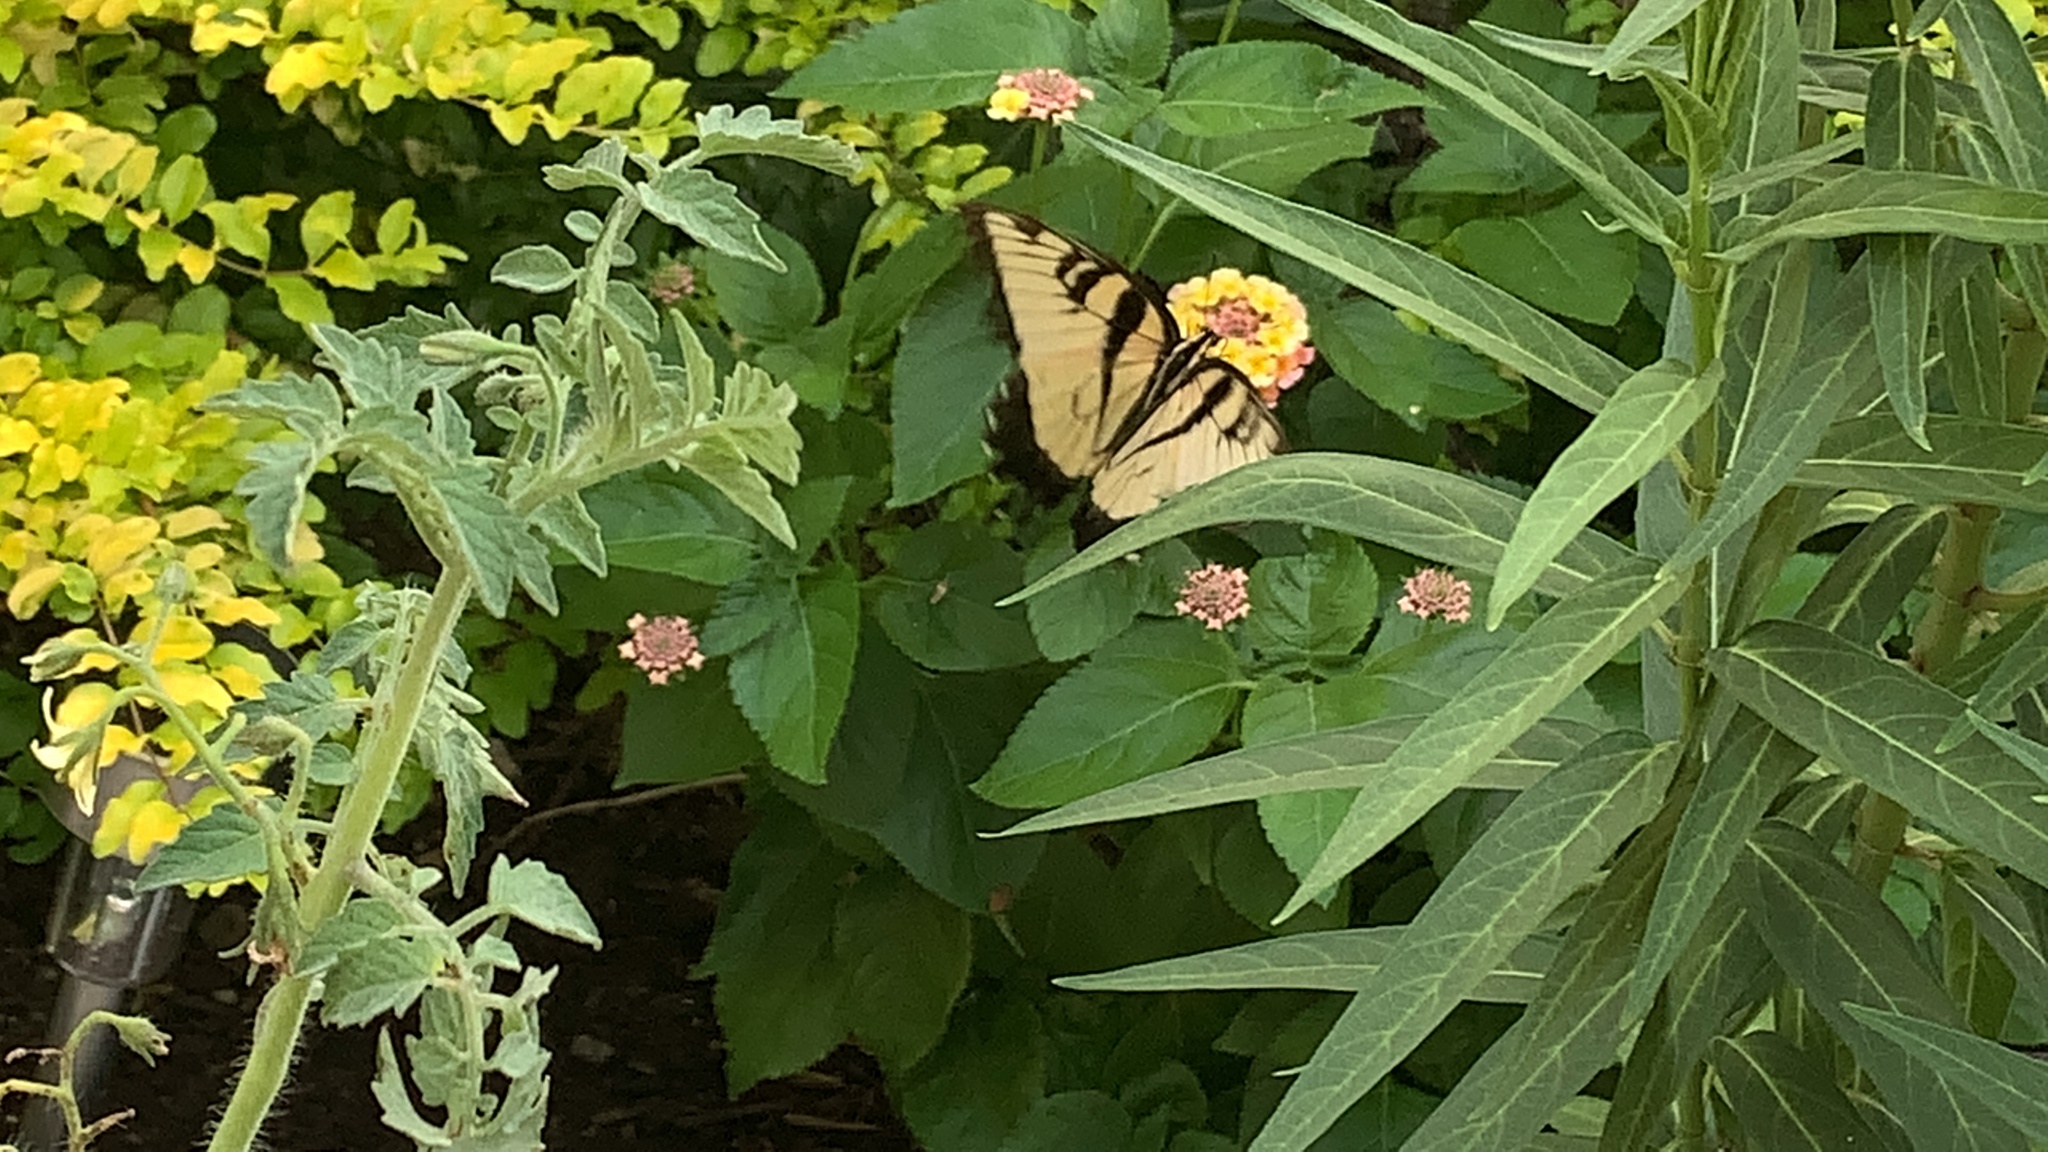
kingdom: Animalia
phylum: Arthropoda
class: Insecta
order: Lepidoptera
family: Papilionidae
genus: Papilio
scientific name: Papilio glaucus
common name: Tiger swallowtail
